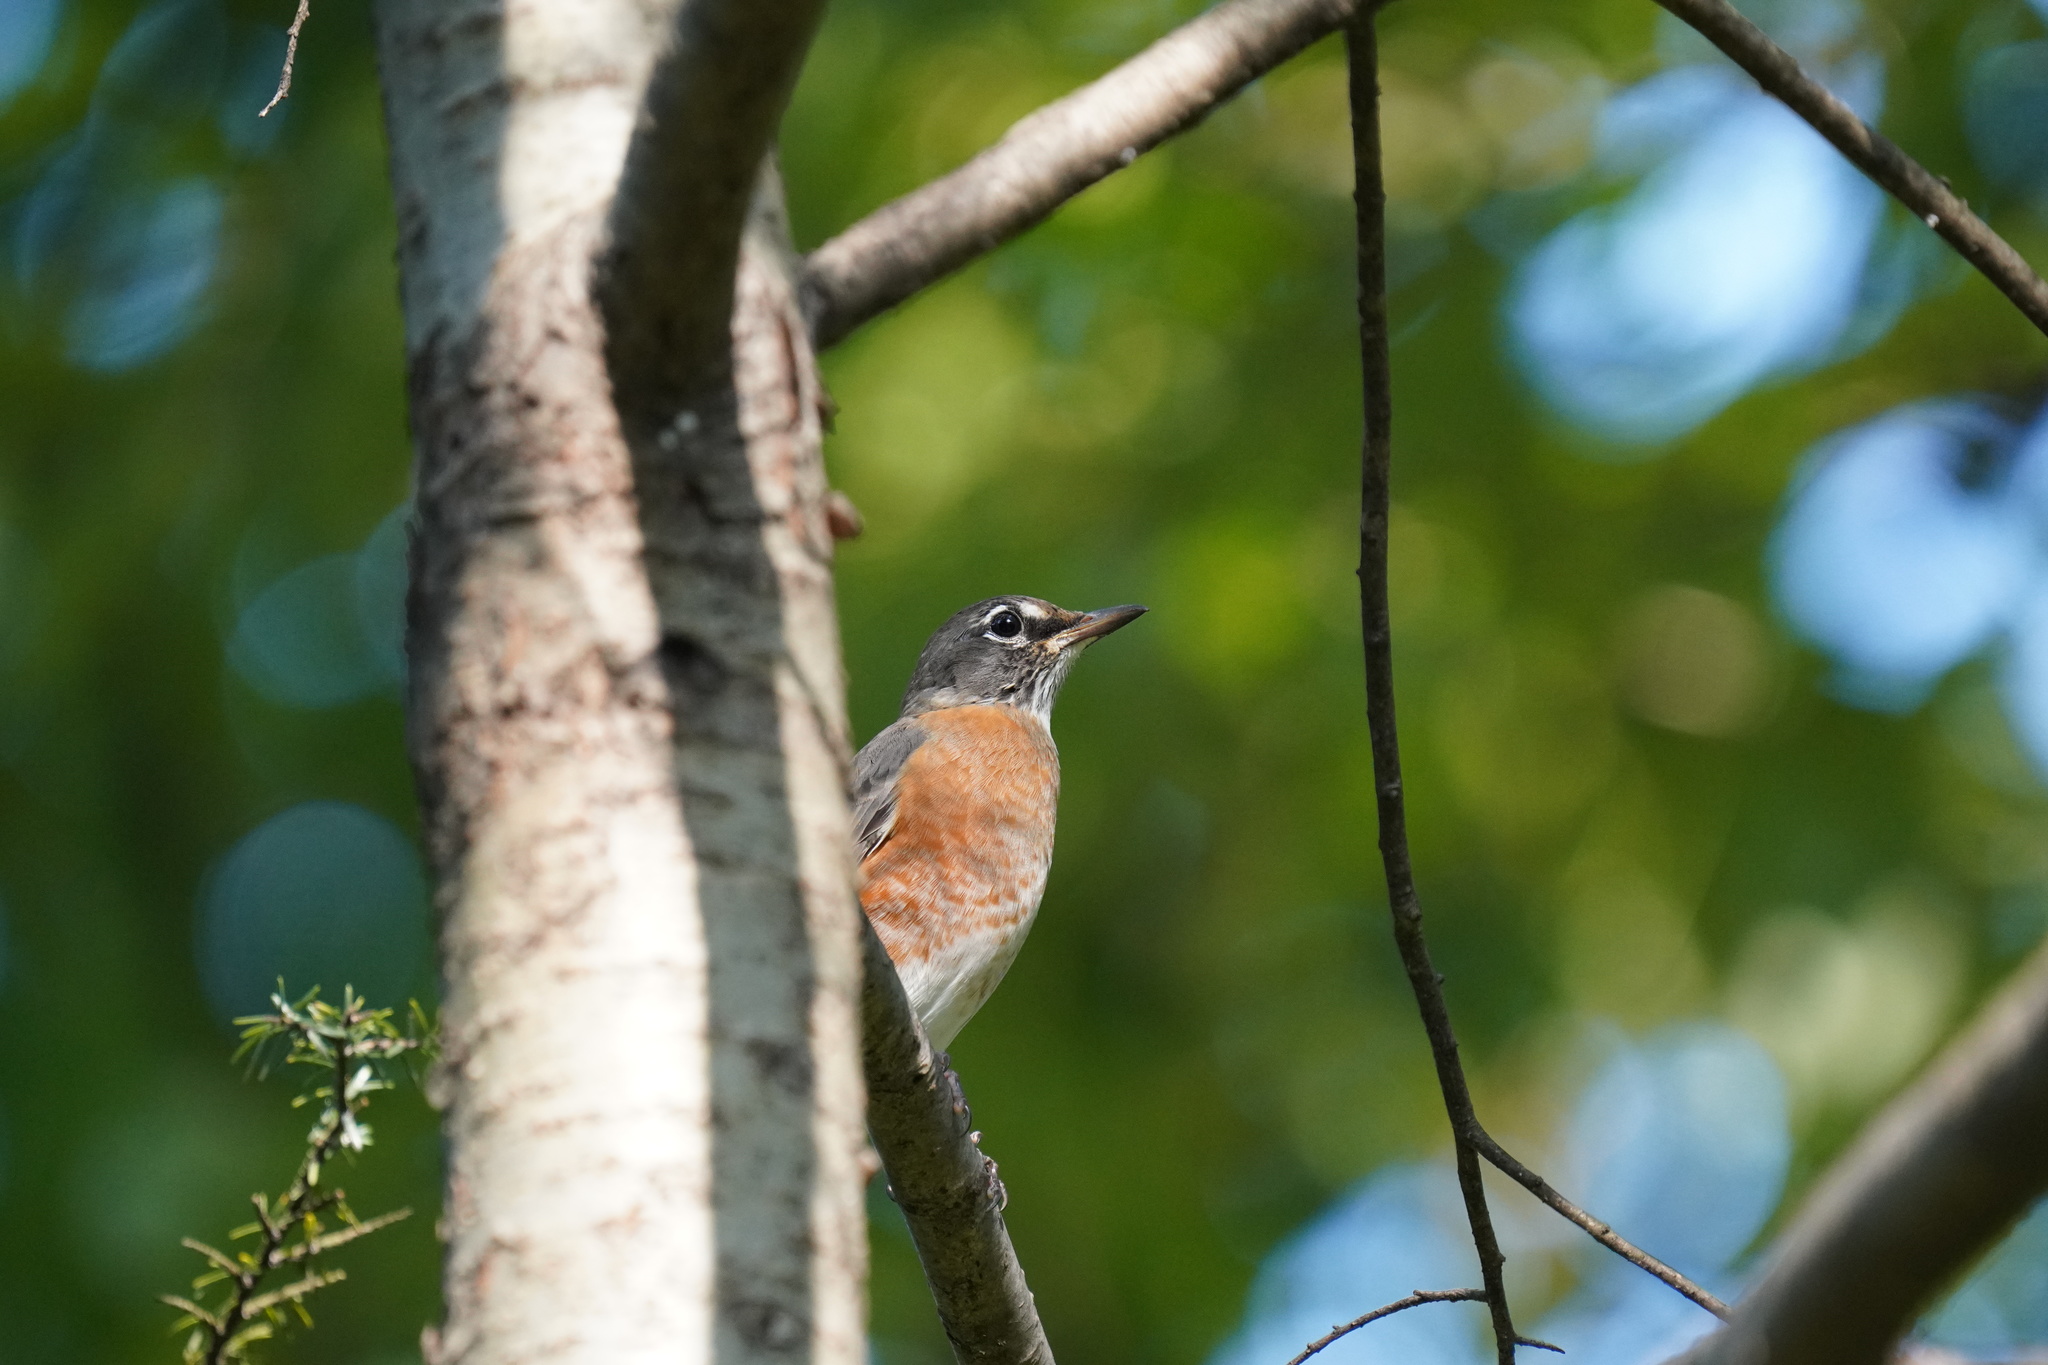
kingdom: Animalia
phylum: Chordata
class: Aves
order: Passeriformes
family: Turdidae
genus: Turdus
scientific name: Turdus migratorius
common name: American robin
